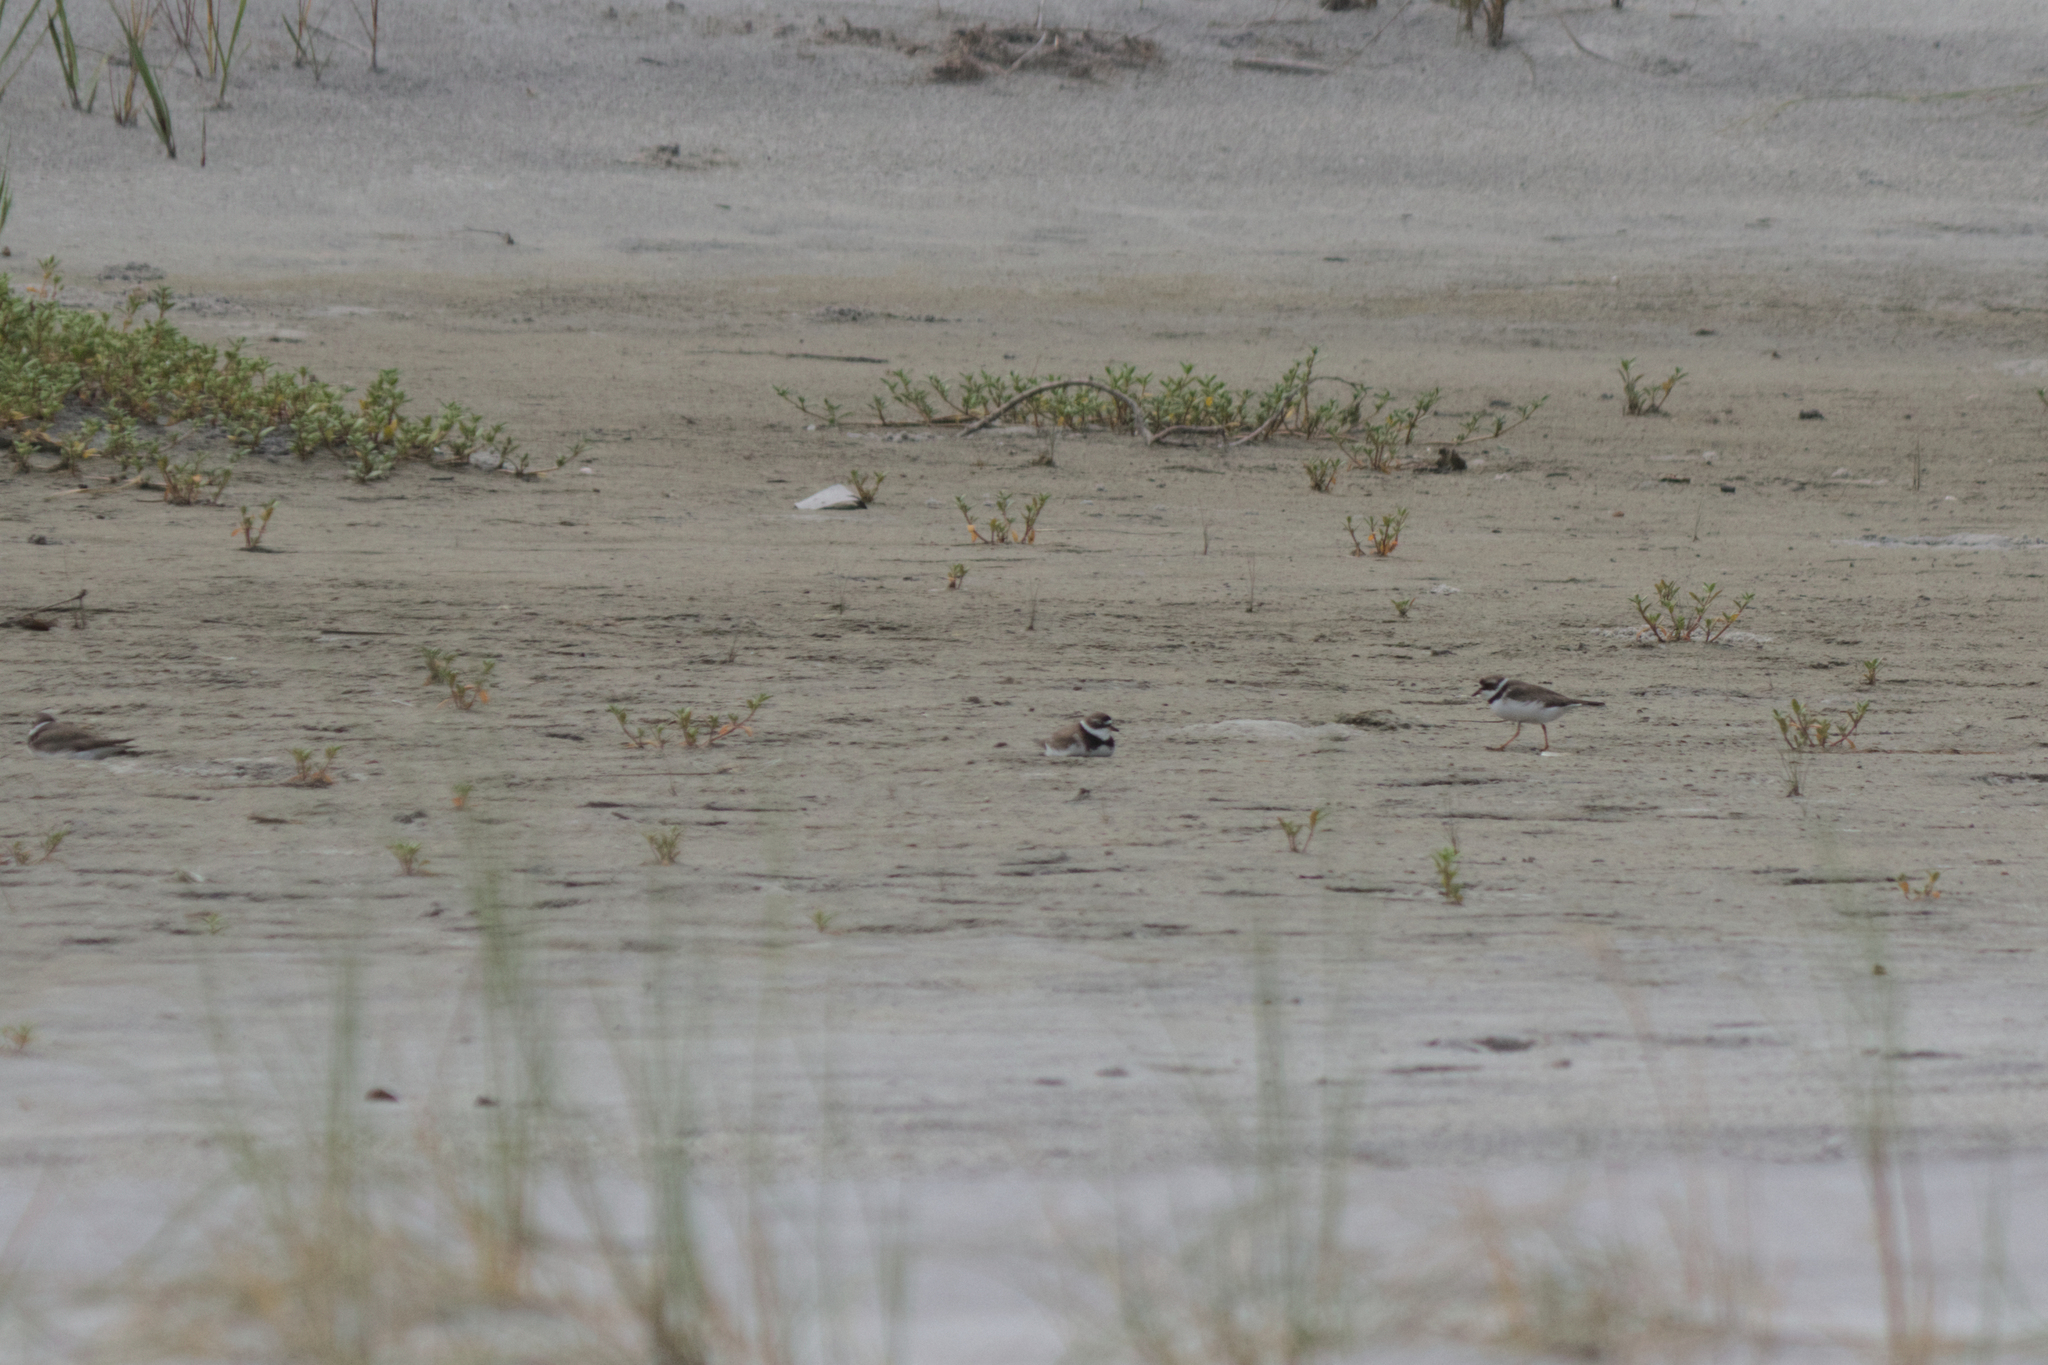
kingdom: Animalia
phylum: Chordata
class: Aves
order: Charadriiformes
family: Charadriidae
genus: Charadrius
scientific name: Charadrius semipalmatus
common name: Semipalmated plover
